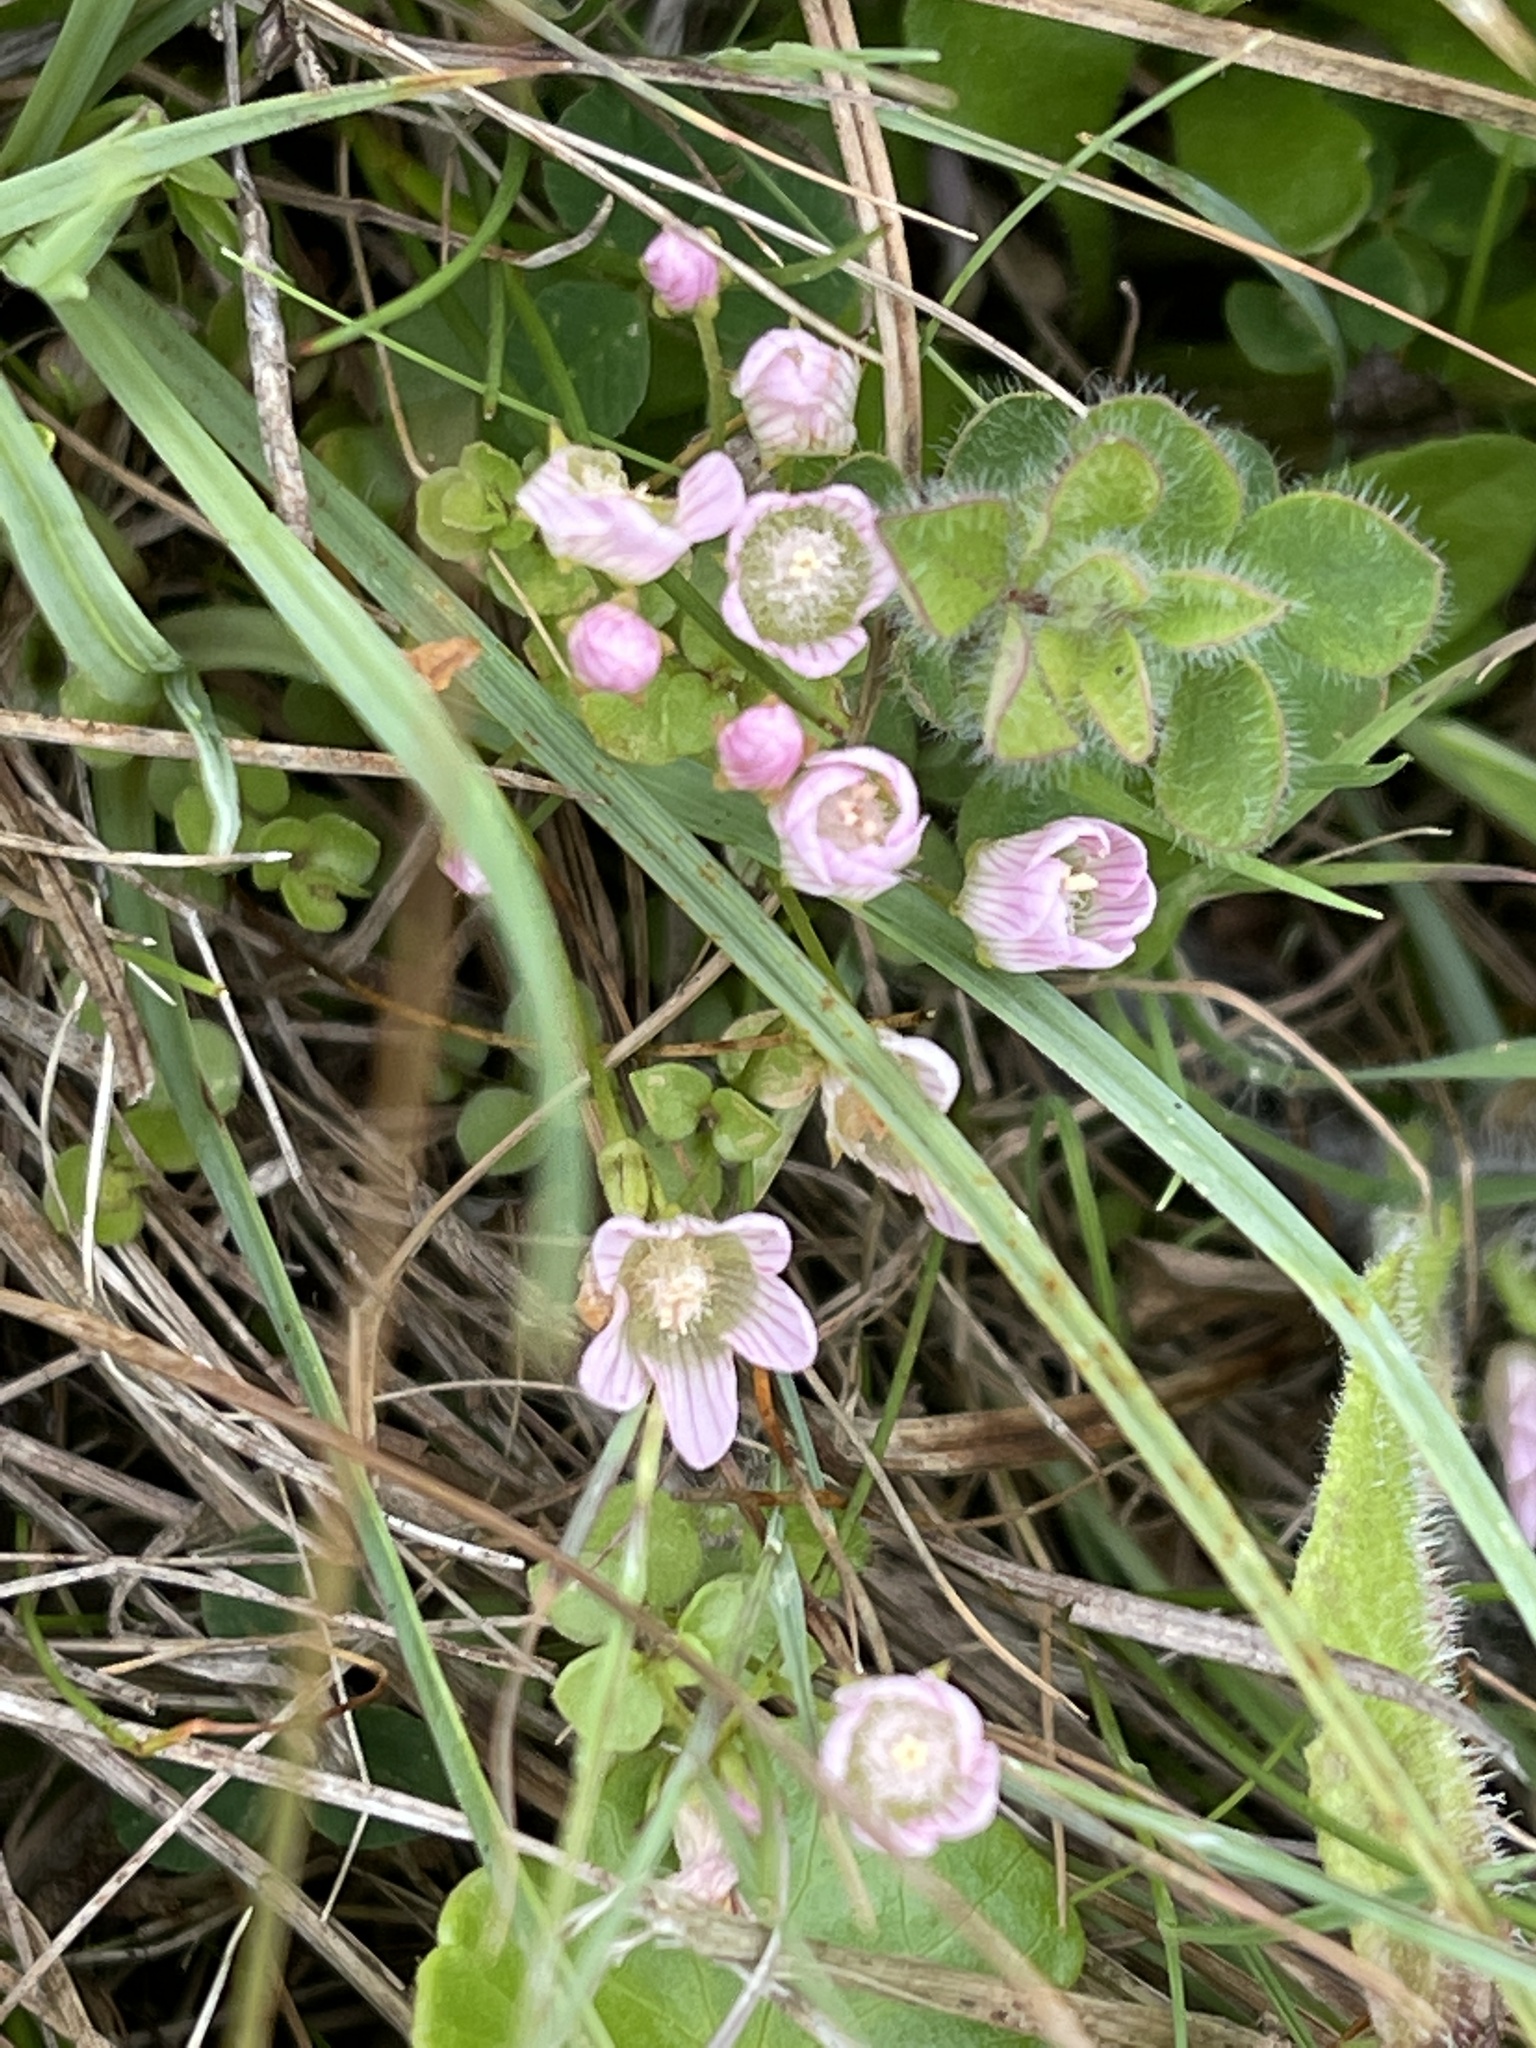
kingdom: Plantae
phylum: Tracheophyta
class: Magnoliopsida
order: Ericales
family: Primulaceae
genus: Lysimachia
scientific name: Lysimachia tenella
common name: European bog pimpernel
